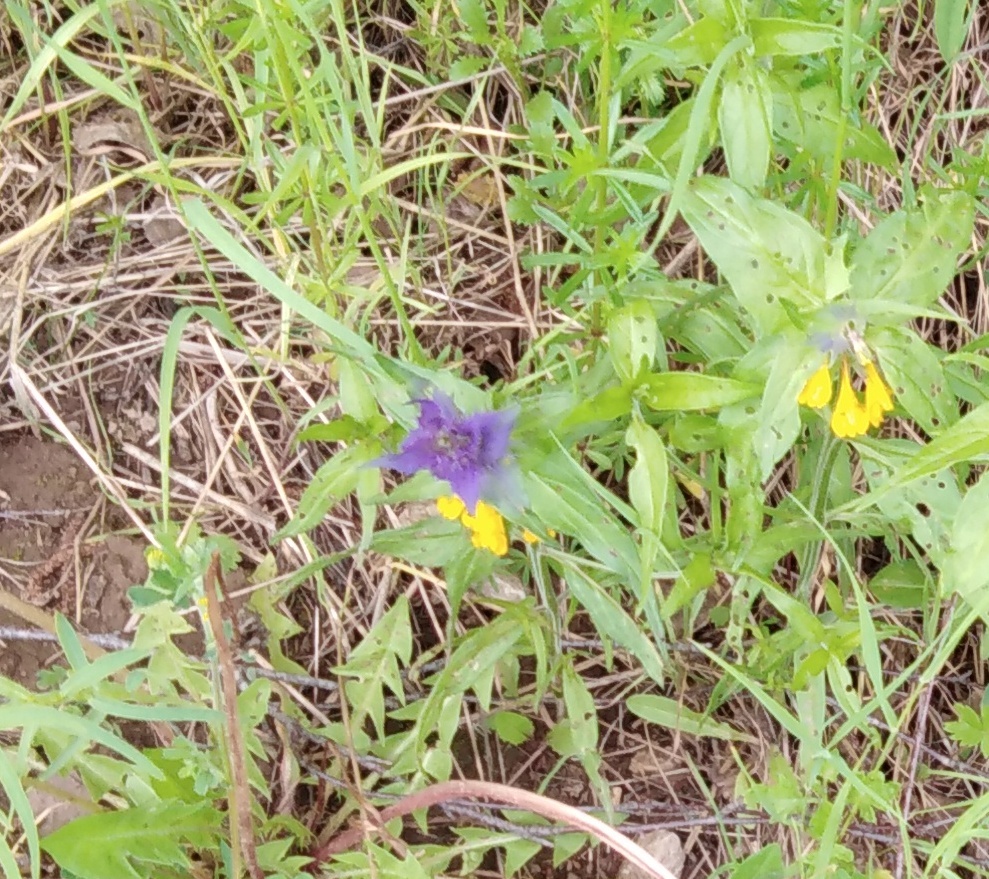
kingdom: Plantae
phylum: Tracheophyta
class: Magnoliopsida
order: Lamiales
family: Orobanchaceae
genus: Melampyrum
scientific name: Melampyrum nemorosum
